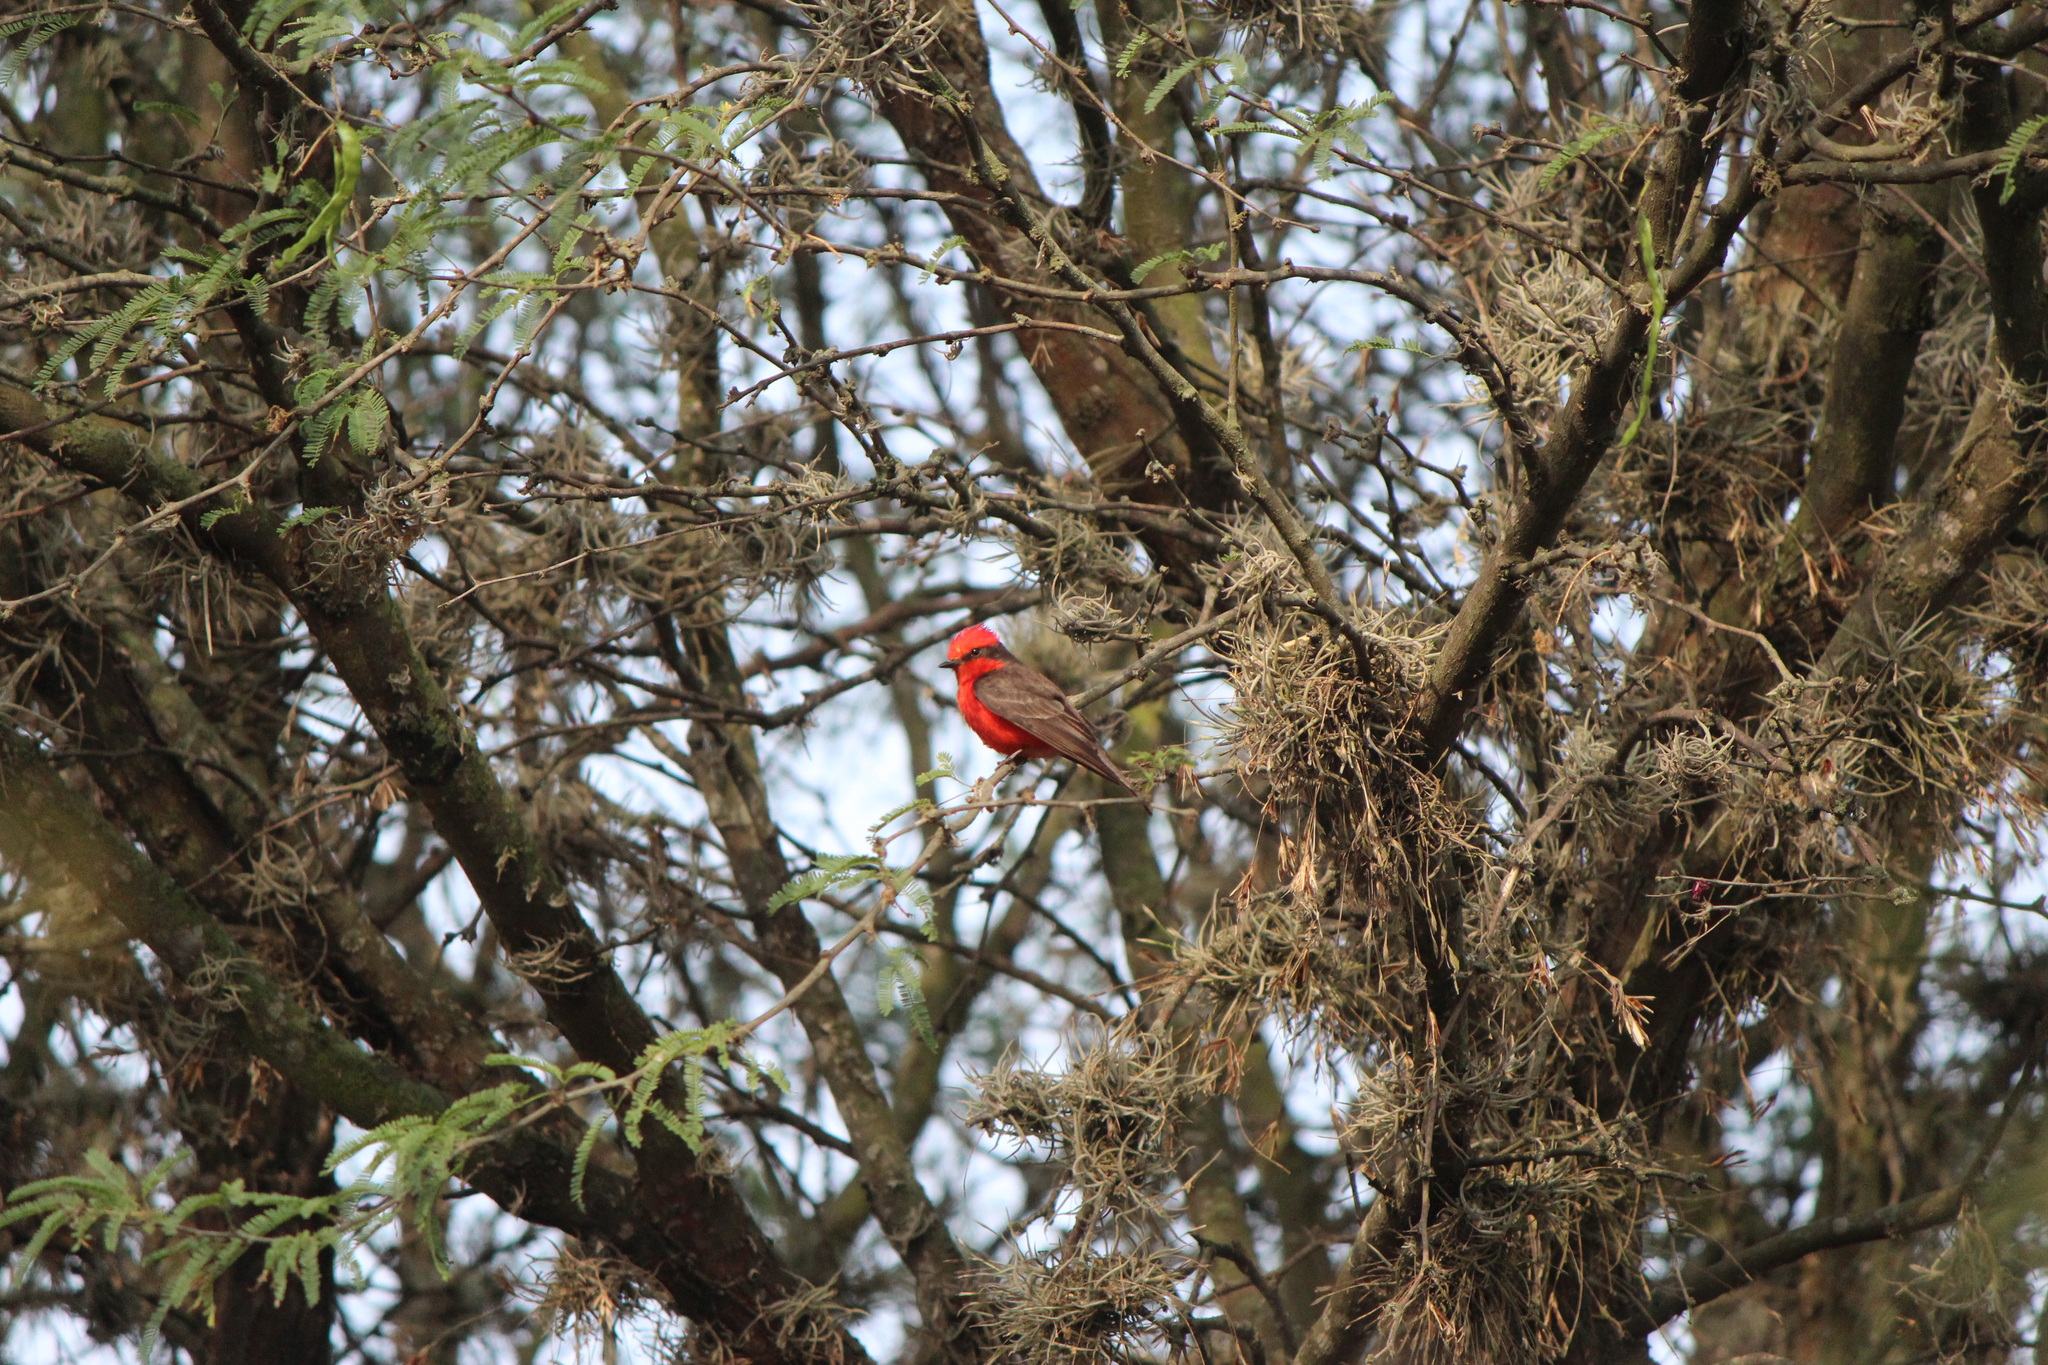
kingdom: Animalia
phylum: Chordata
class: Aves
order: Passeriformes
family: Tyrannidae
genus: Pyrocephalus
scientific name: Pyrocephalus rubinus
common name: Vermilion flycatcher
